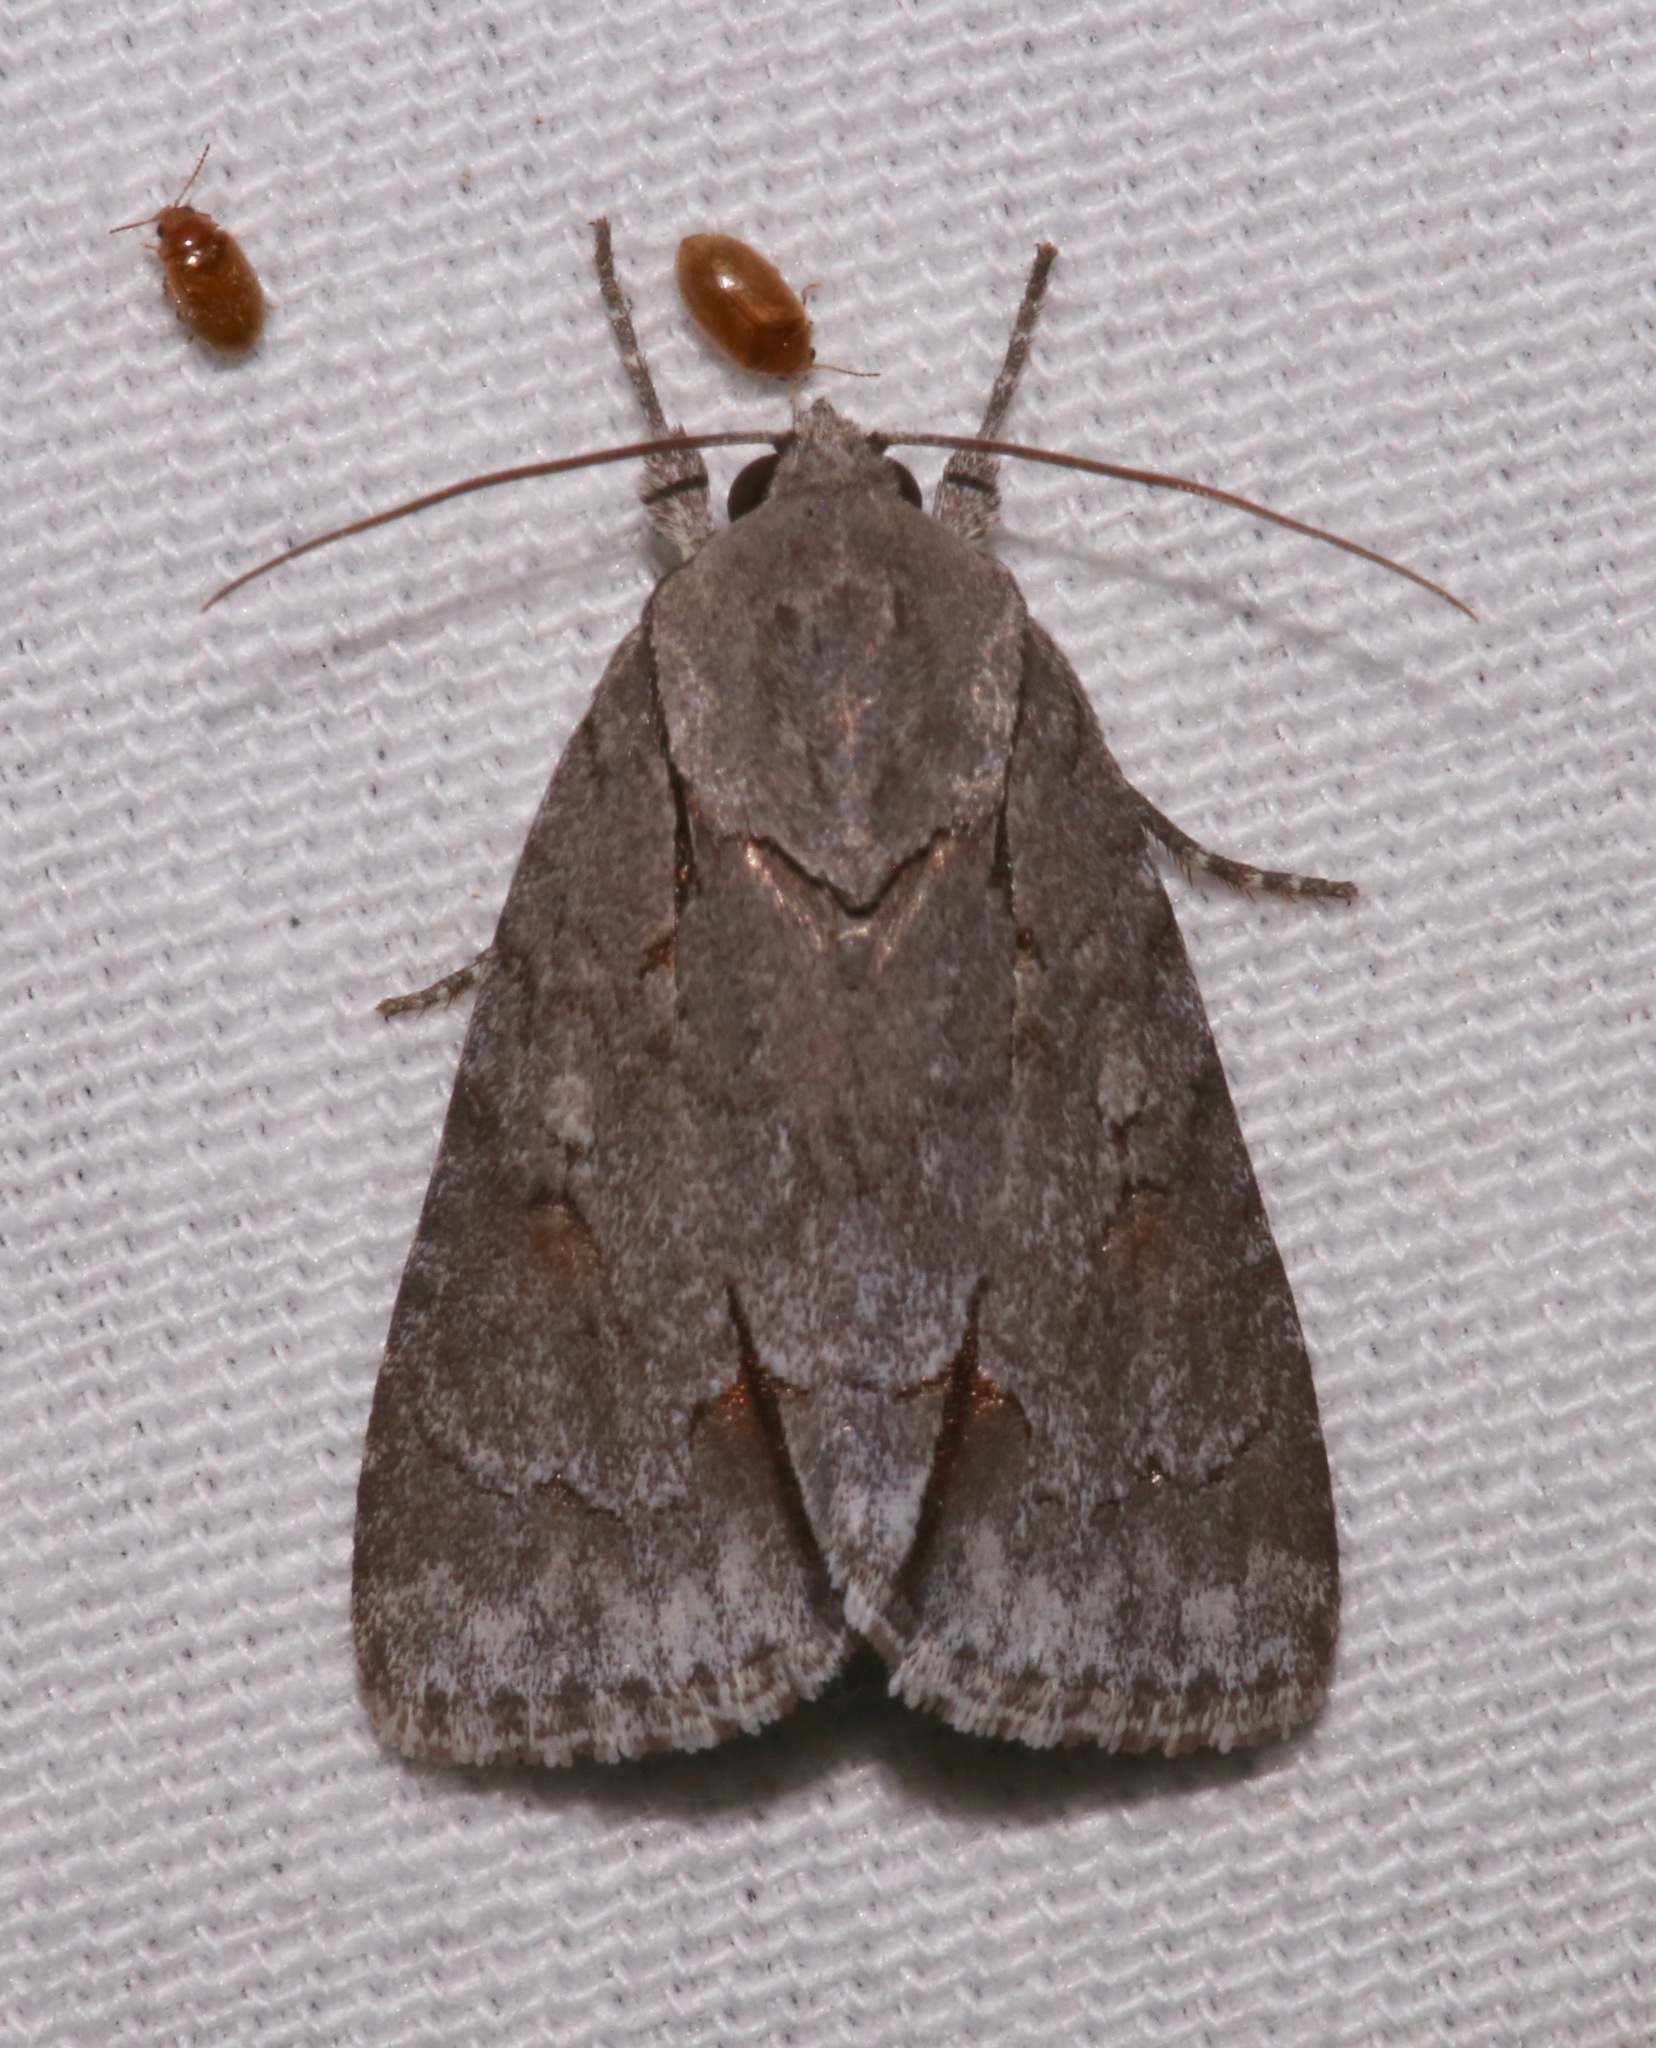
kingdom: Animalia
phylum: Arthropoda
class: Insecta
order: Lepidoptera
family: Noctuidae
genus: Acronicta
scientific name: Acronicta tritona
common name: Triton dagger
